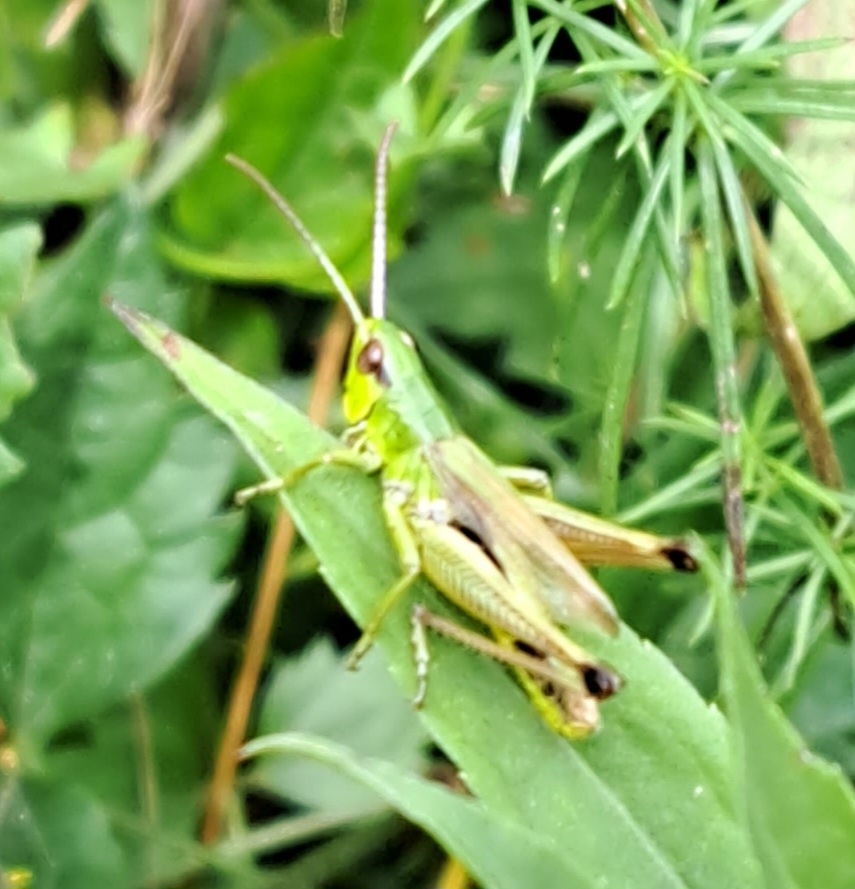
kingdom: Animalia
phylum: Arthropoda
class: Insecta
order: Orthoptera
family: Acrididae
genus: Pseudochorthippus
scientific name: Pseudochorthippus parallelus
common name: Meadow grasshopper
